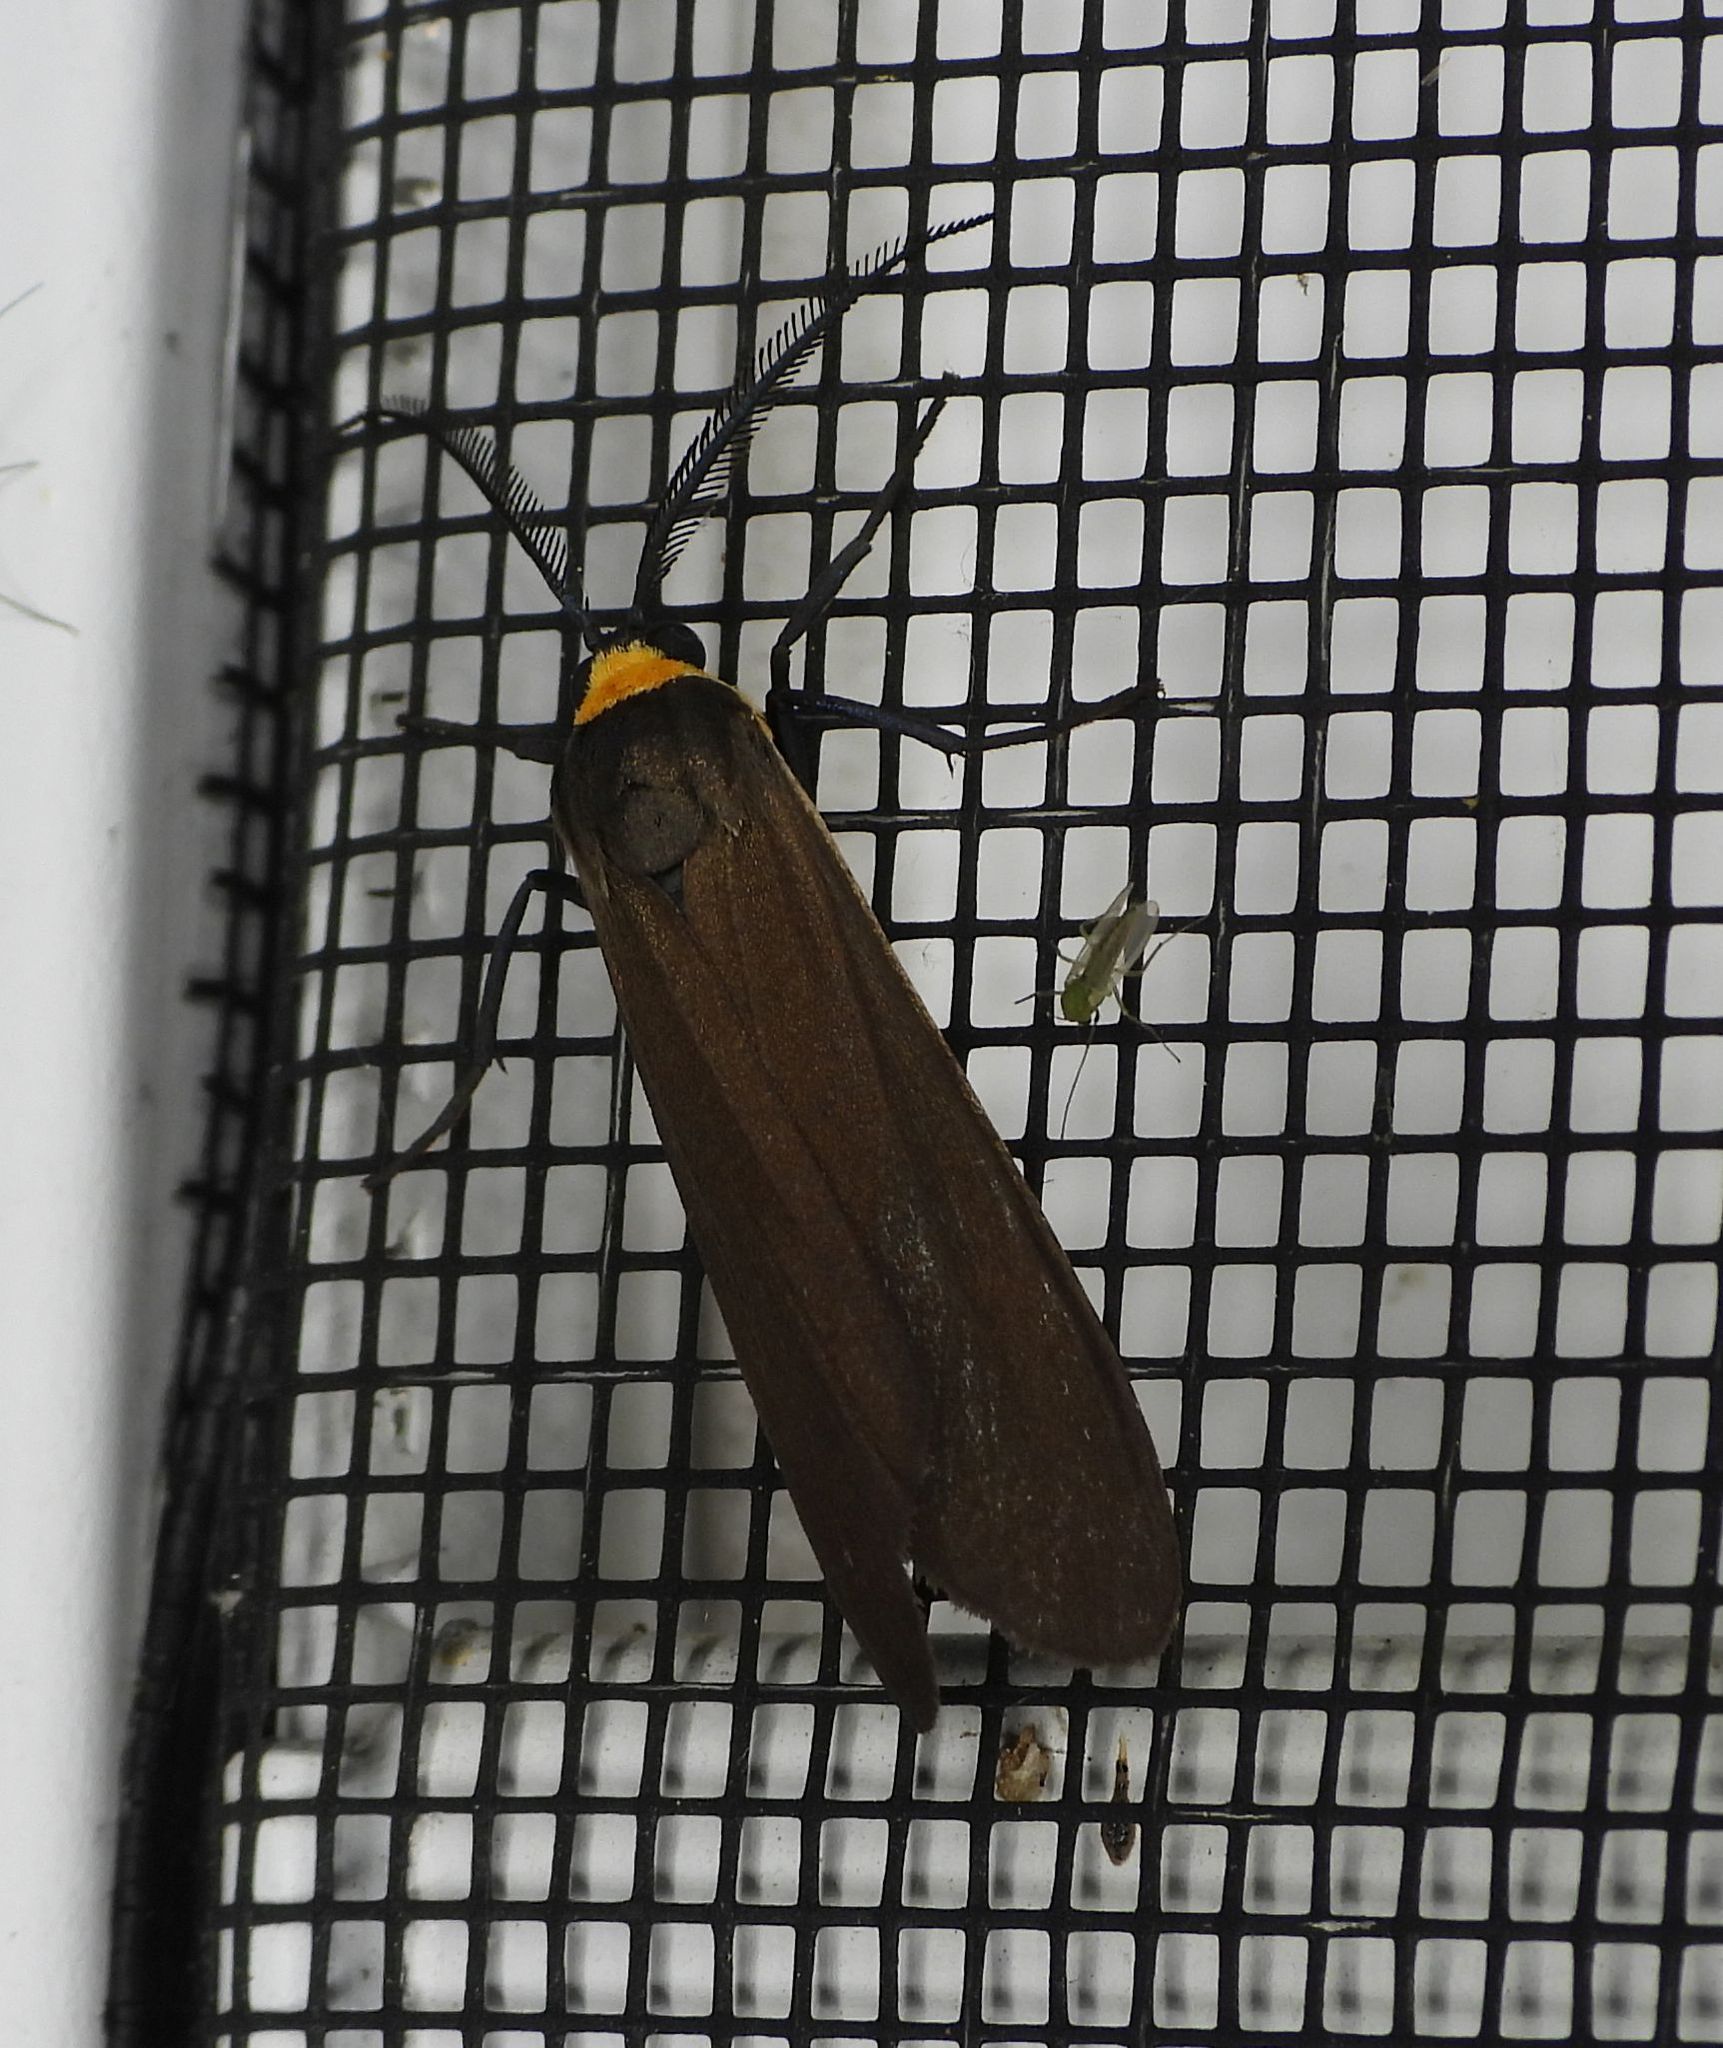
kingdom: Animalia
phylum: Arthropoda
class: Insecta
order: Lepidoptera
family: Erebidae
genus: Cisseps
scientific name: Cisseps fulvicollis
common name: Yellow-collared scape moth
